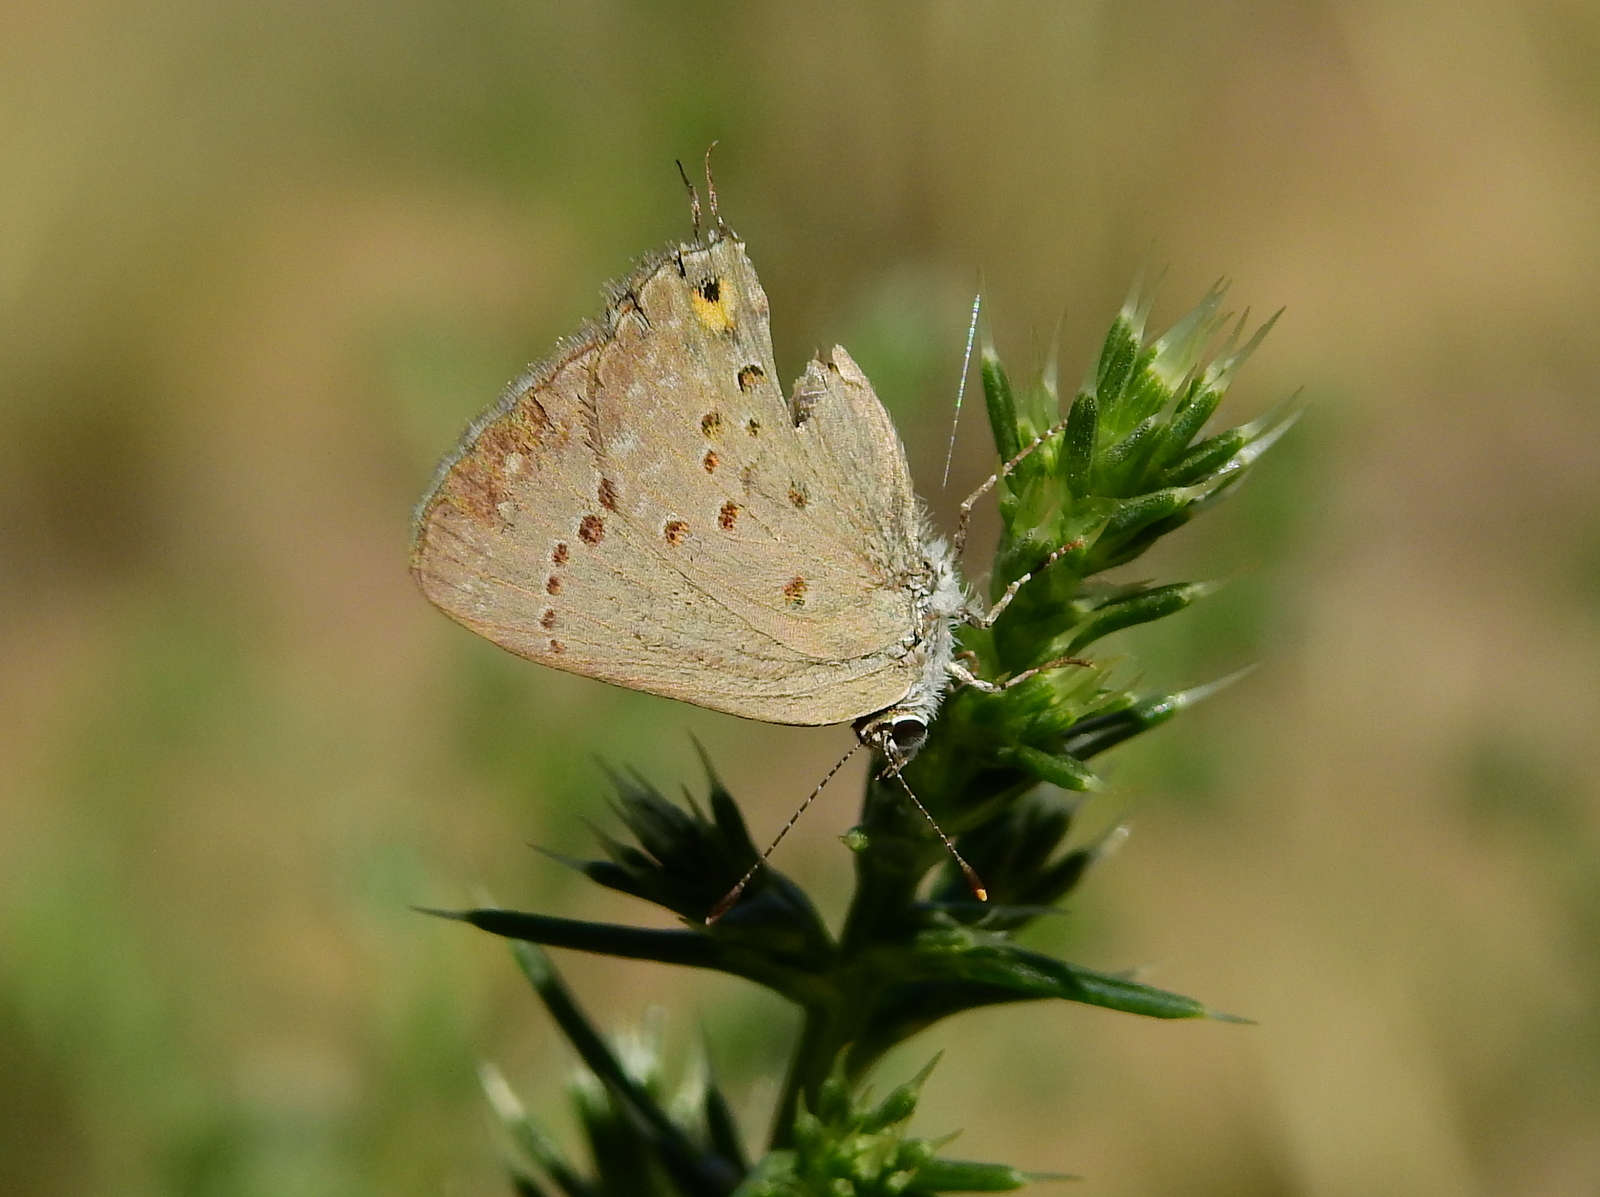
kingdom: Animalia
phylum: Arthropoda
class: Insecta
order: Lepidoptera
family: Lycaenidae
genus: Strymon
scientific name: Strymon eurytulus
